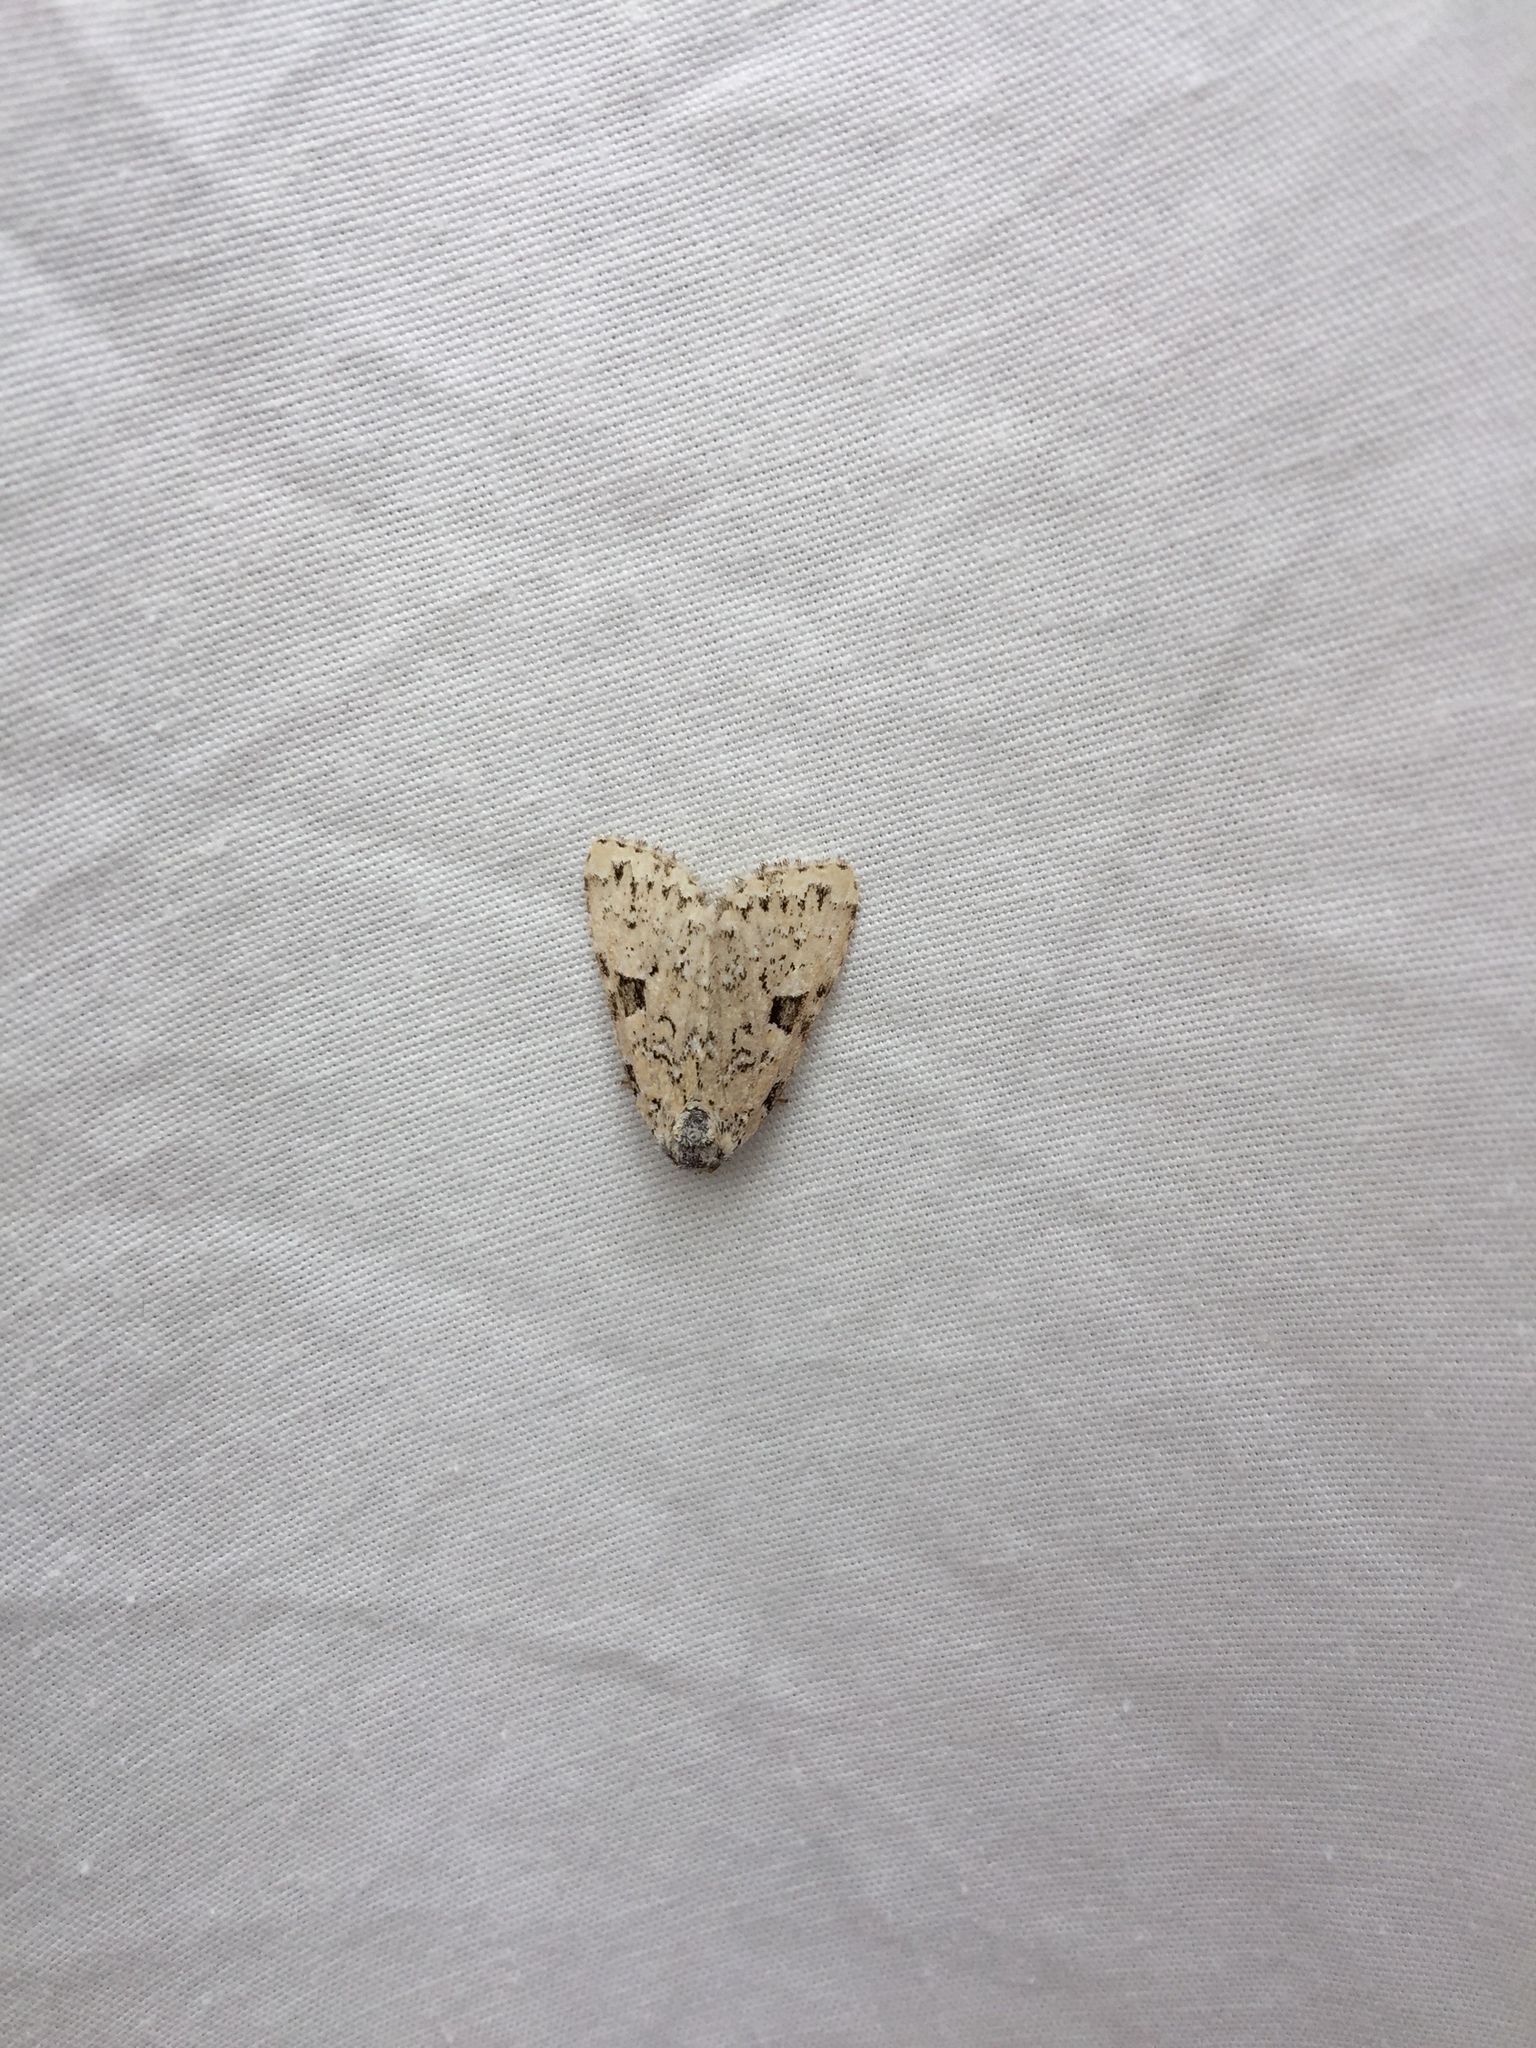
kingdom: Animalia
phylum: Arthropoda
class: Insecta
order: Lepidoptera
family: Noctuidae
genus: Leuconycta
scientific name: Leuconycta diphteroides
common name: Green leuconycta moth
